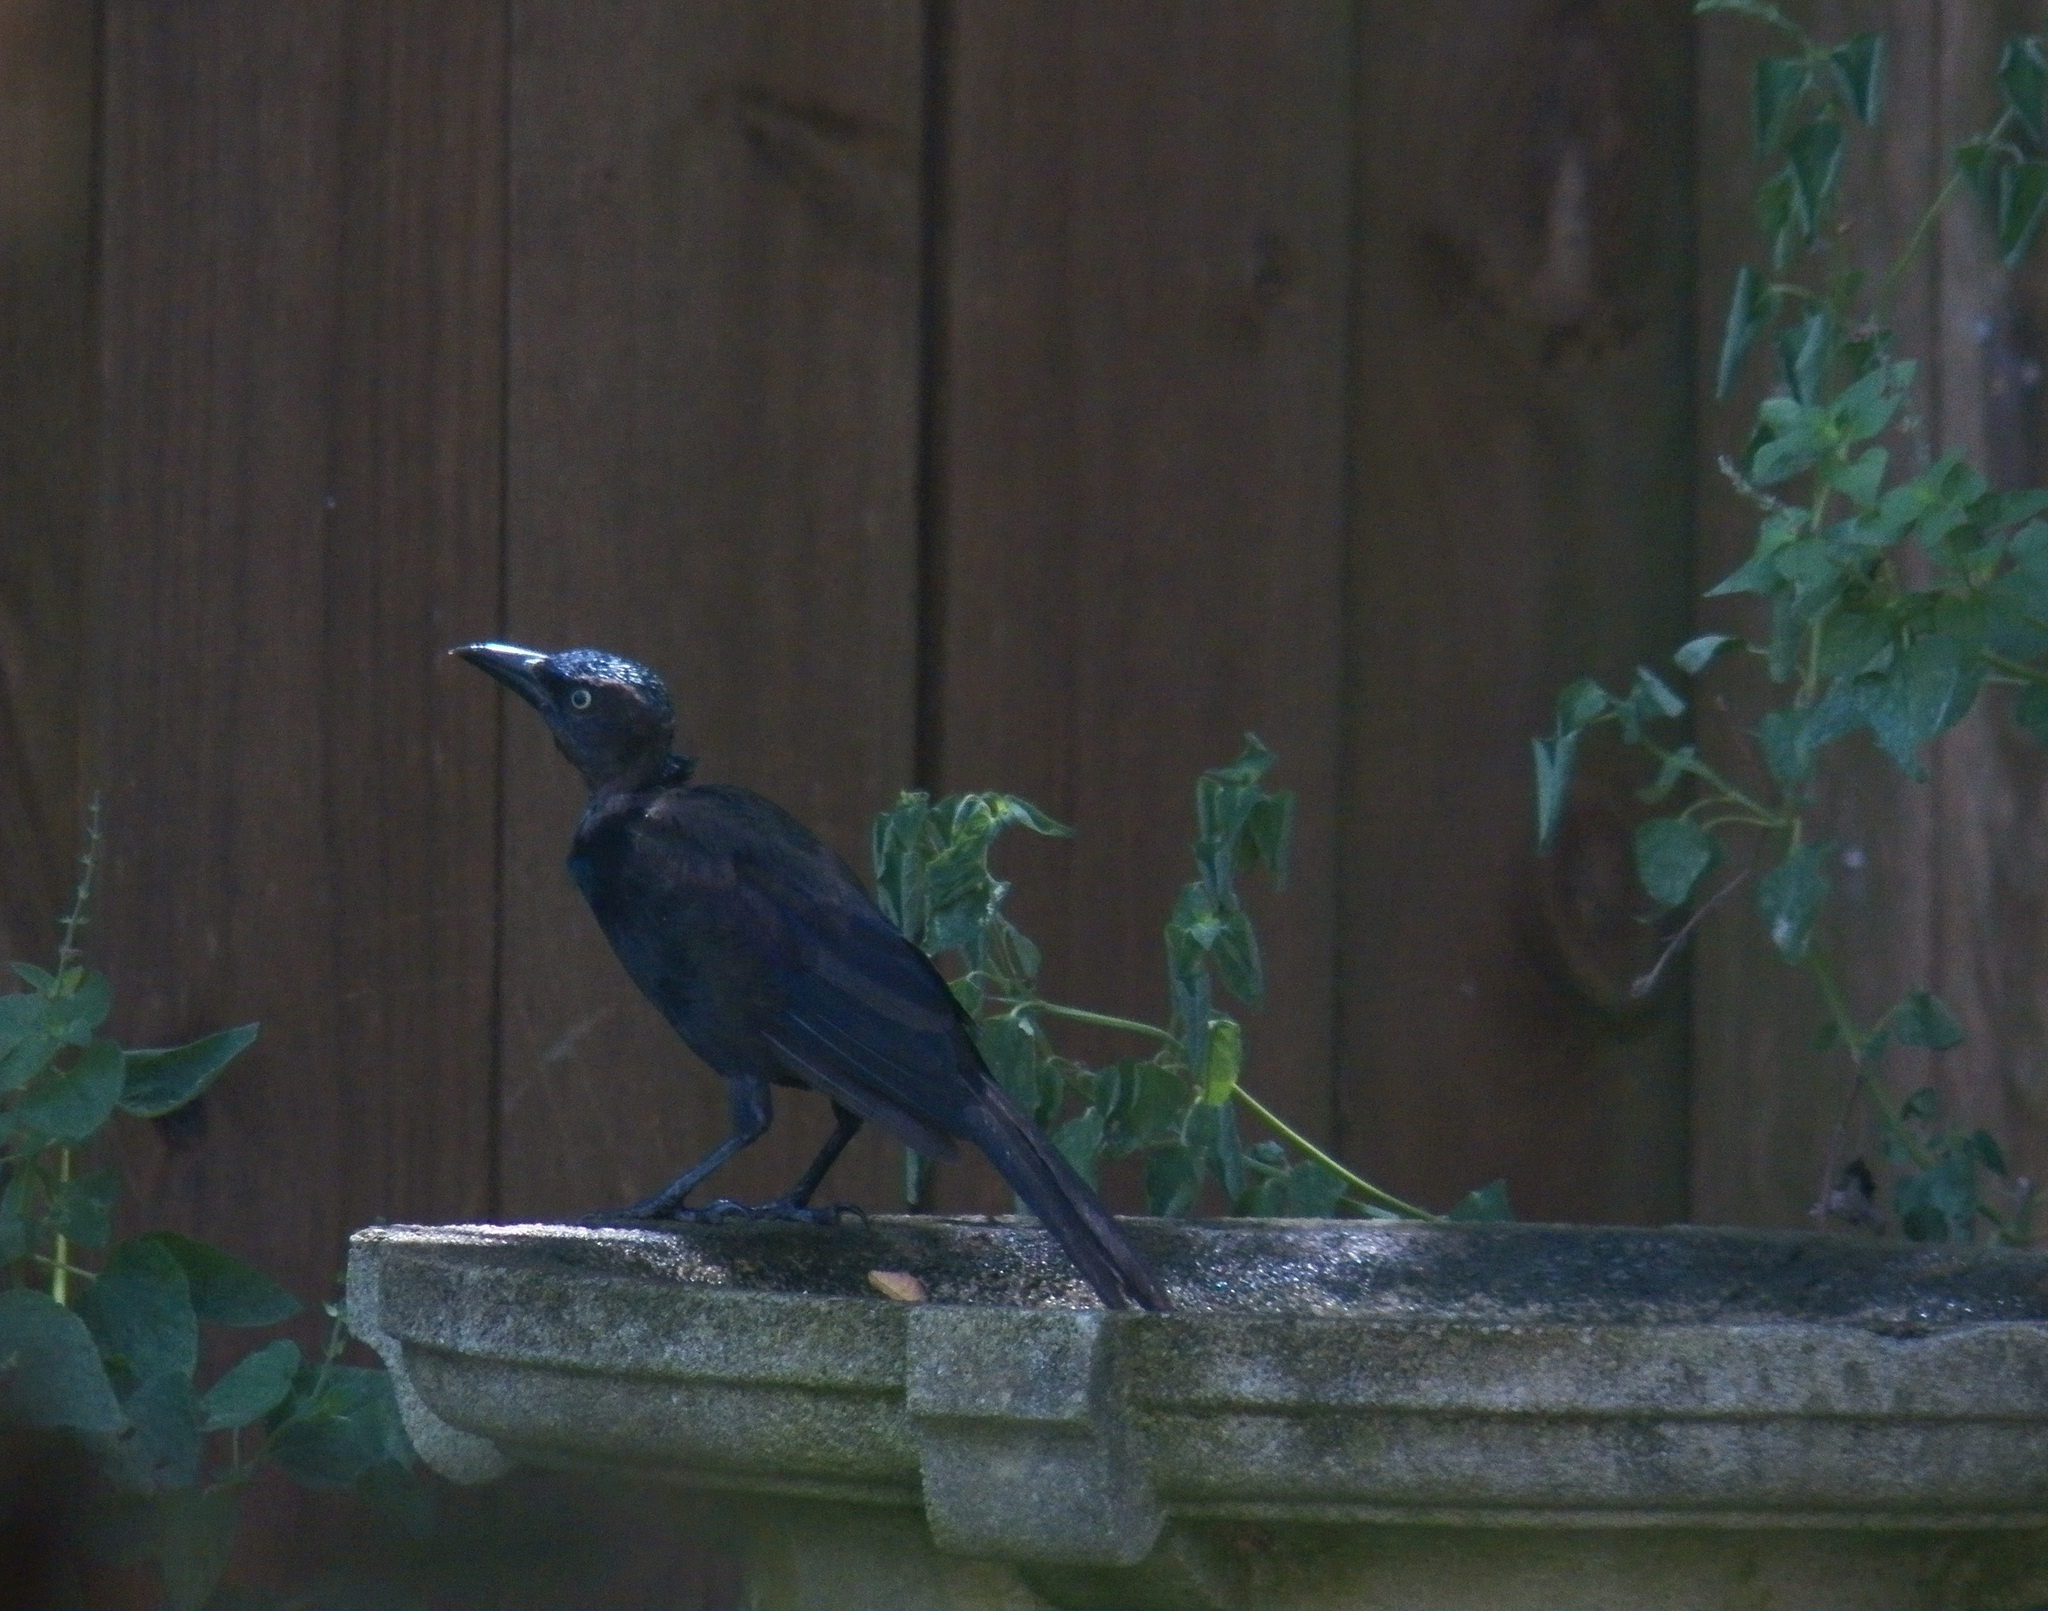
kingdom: Animalia
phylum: Chordata
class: Aves
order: Passeriformes
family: Icteridae
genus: Quiscalus
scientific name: Quiscalus mexicanus
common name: Great-tailed grackle
